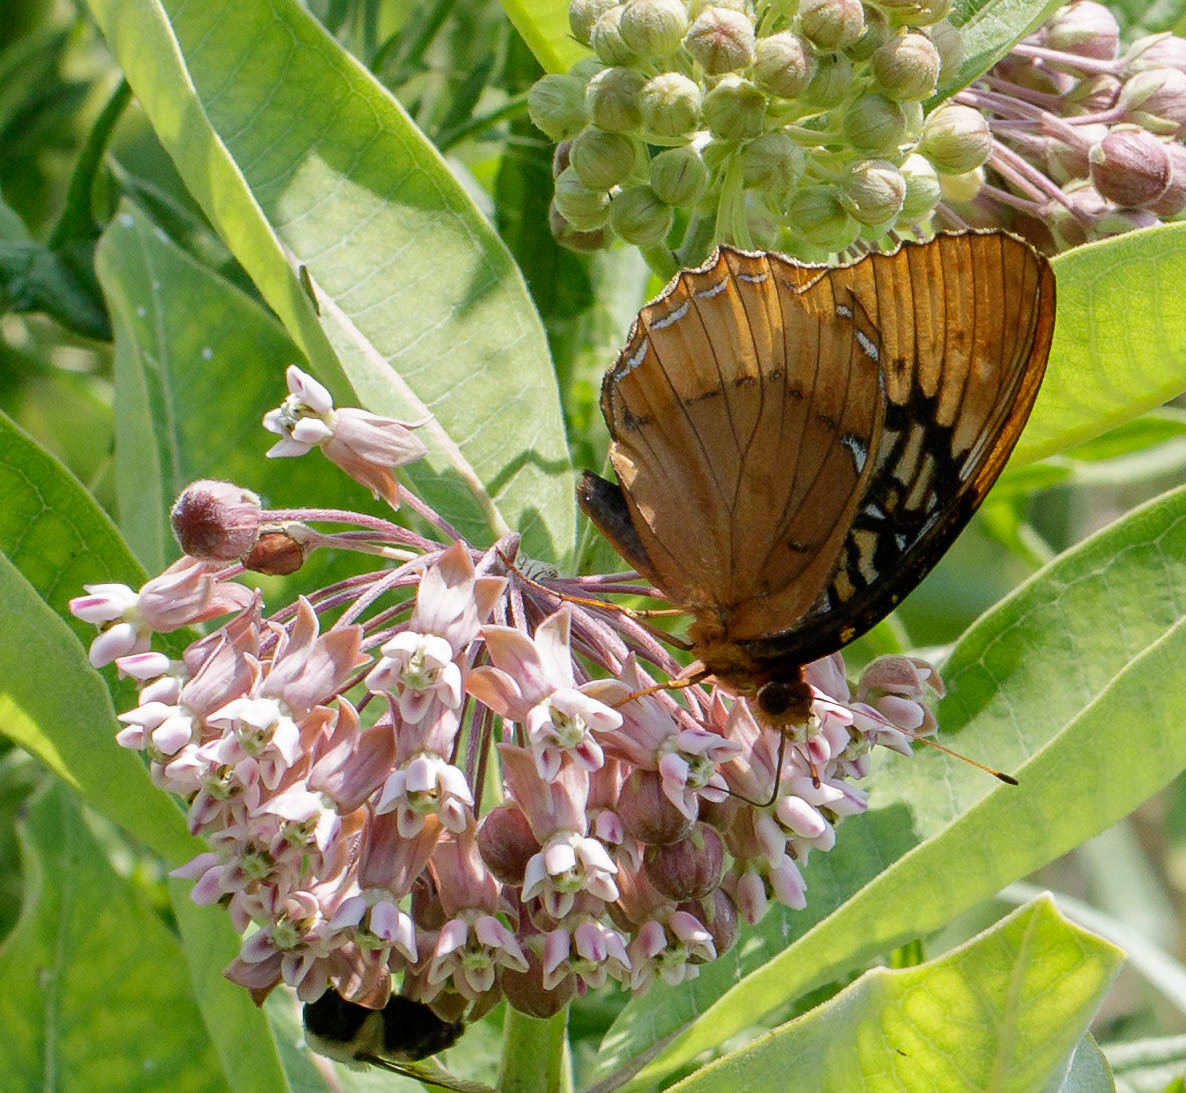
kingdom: Animalia
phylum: Arthropoda
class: Insecta
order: Lepidoptera
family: Nymphalidae
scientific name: Nymphalidae
